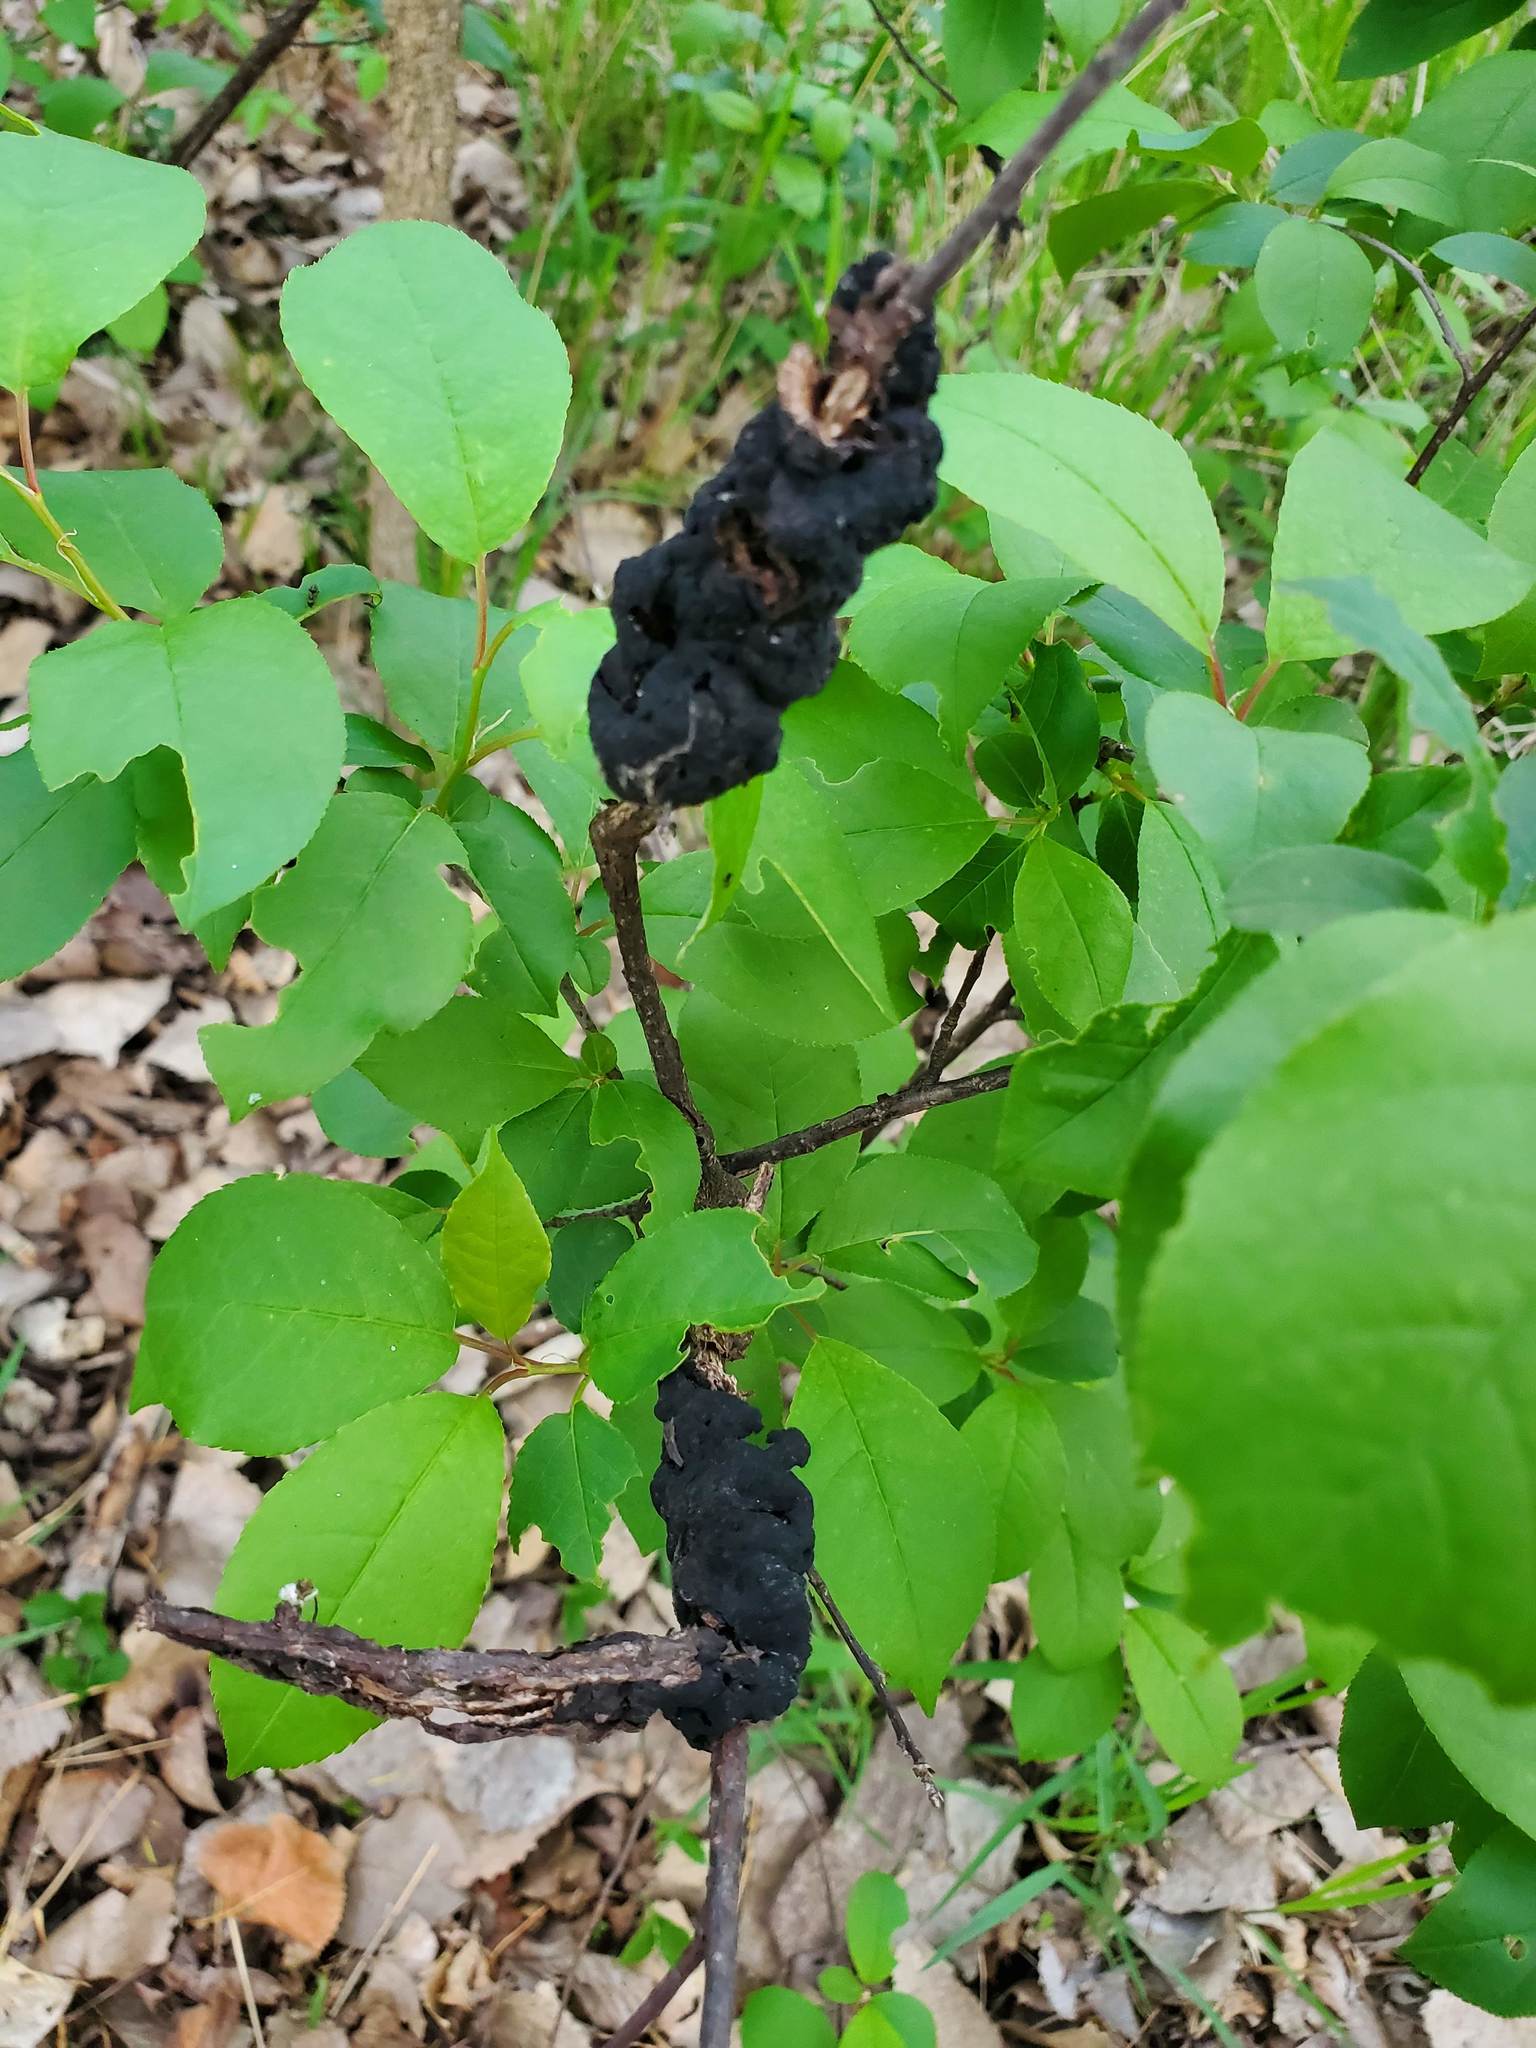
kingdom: Fungi
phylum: Ascomycota
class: Dothideomycetes
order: Venturiales
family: Venturiaceae
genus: Apiosporina
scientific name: Apiosporina morbosa
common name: Black knot
